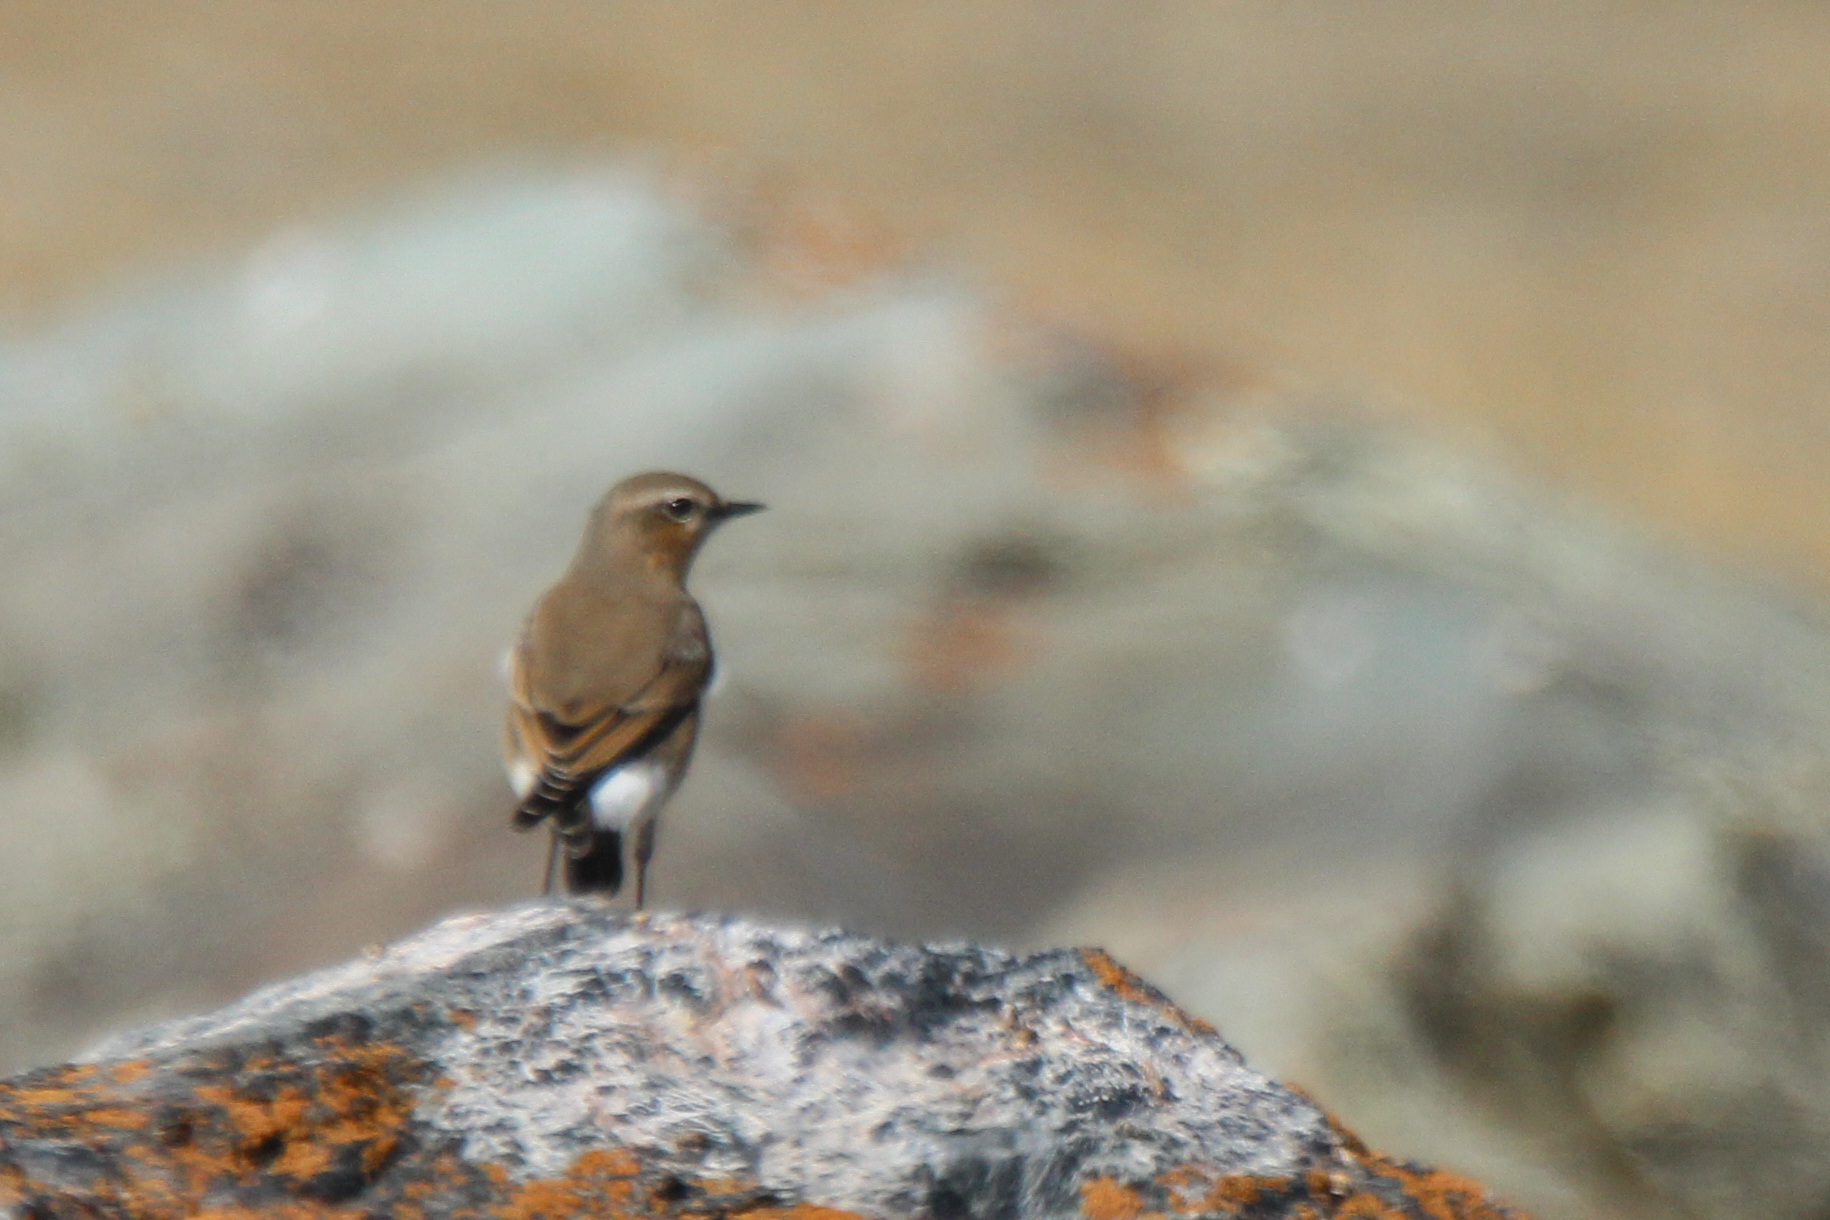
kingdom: Animalia
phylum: Chordata
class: Aves
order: Passeriformes
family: Muscicapidae
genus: Oenanthe
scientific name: Oenanthe oenanthe
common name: Northern wheatear
